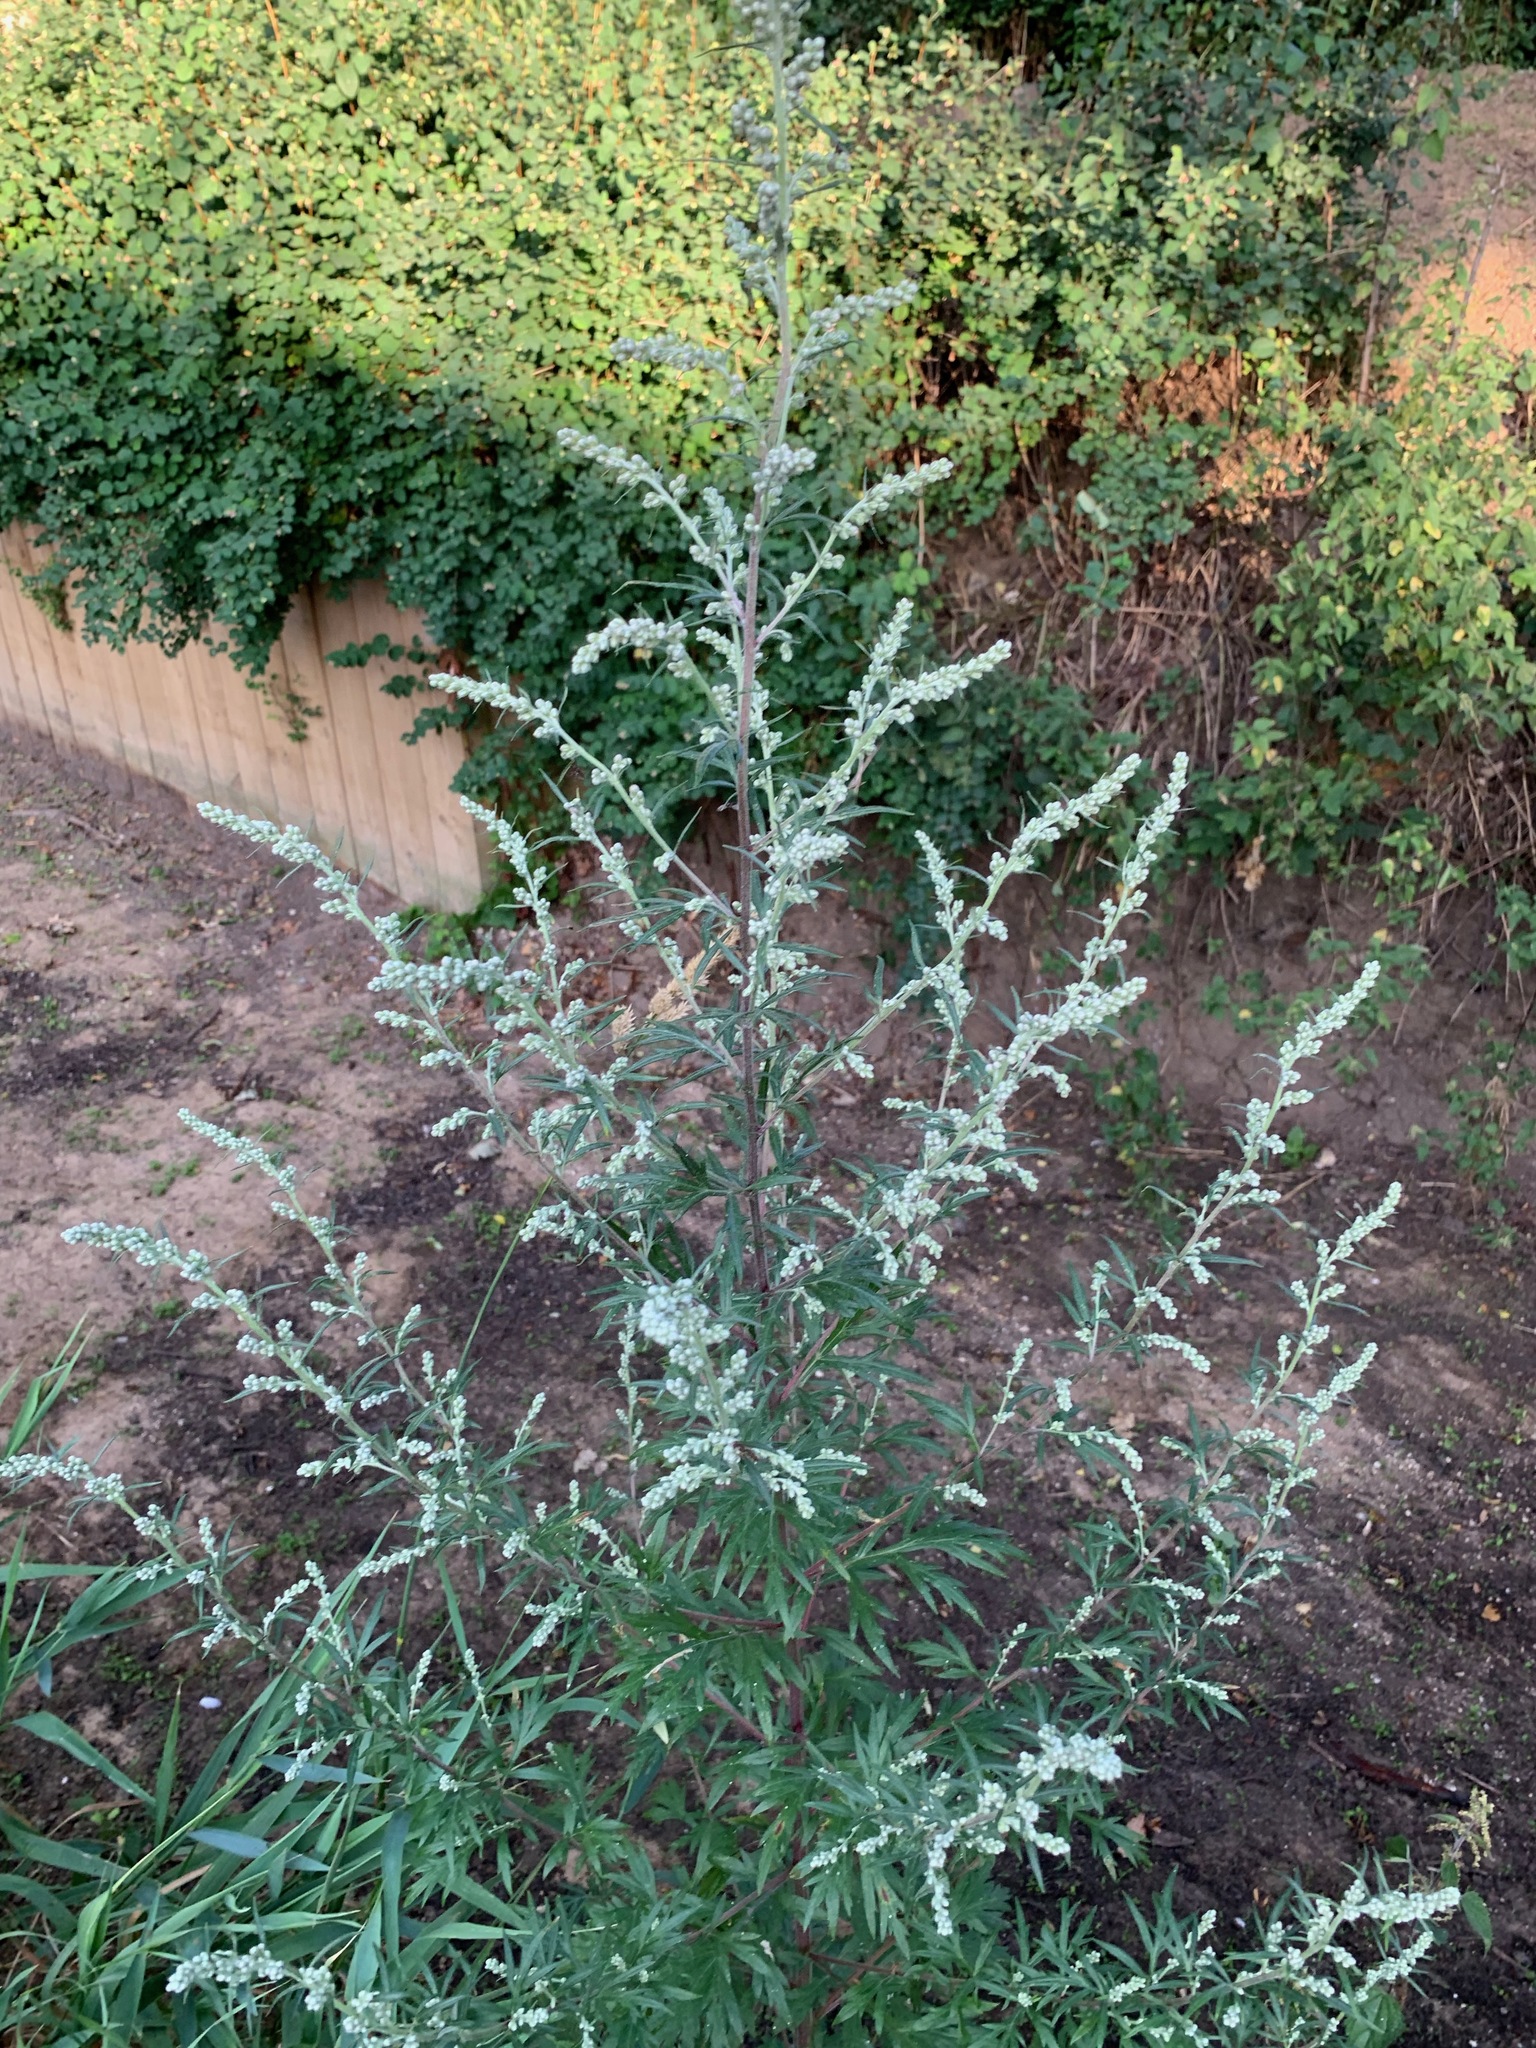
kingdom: Plantae
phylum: Tracheophyta
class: Magnoliopsida
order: Asterales
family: Asteraceae
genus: Artemisia
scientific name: Artemisia vulgaris
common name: Mugwort
